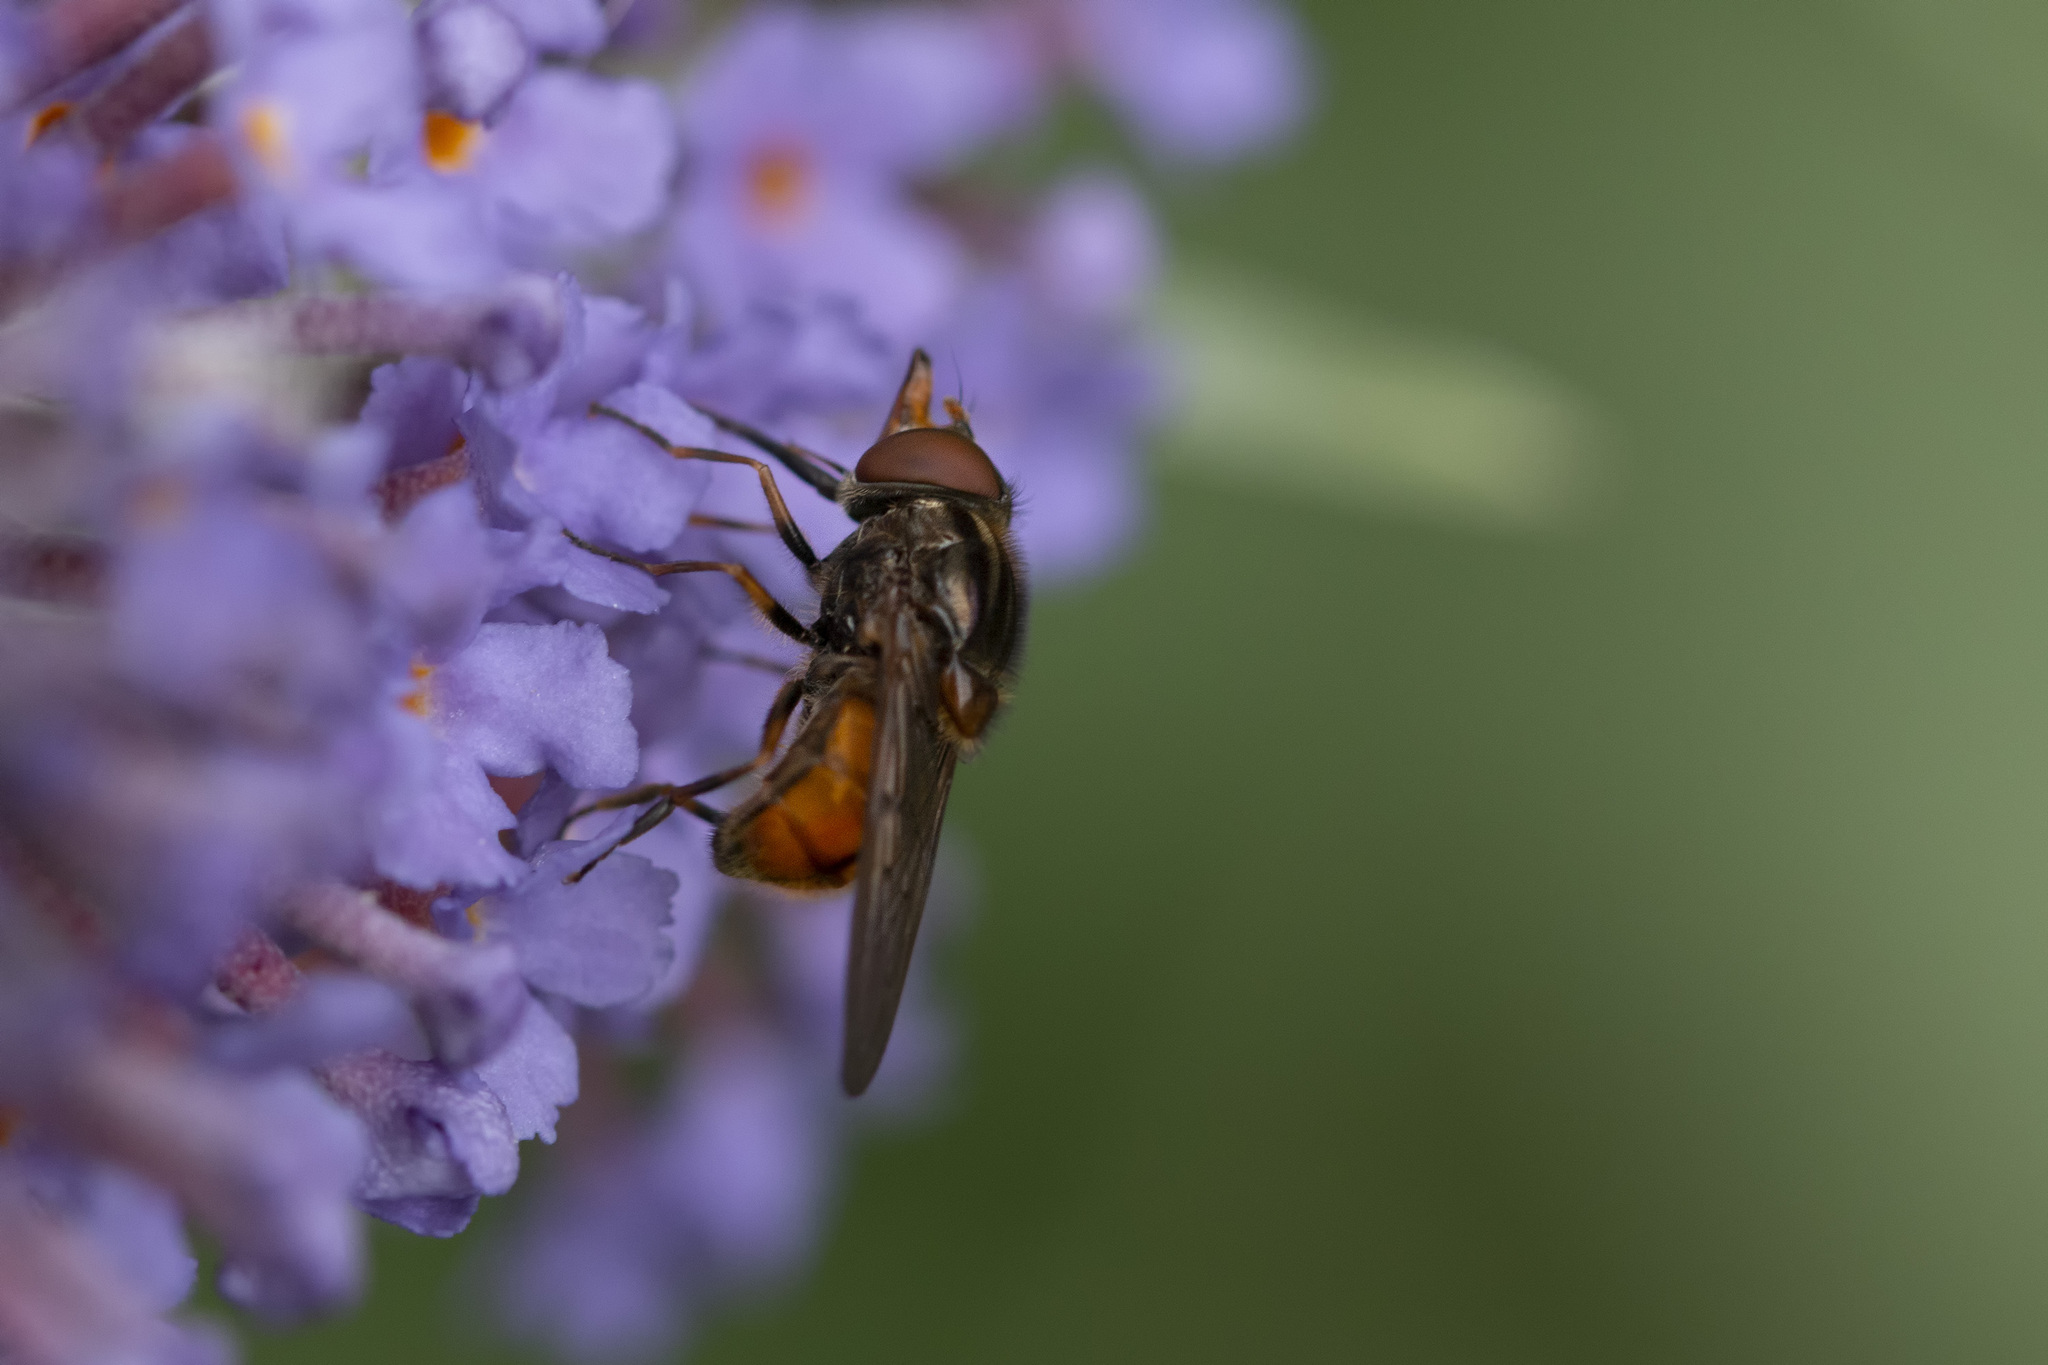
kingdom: Animalia
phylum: Arthropoda
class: Insecta
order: Diptera
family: Syrphidae
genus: Rhingia
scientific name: Rhingia campestris
